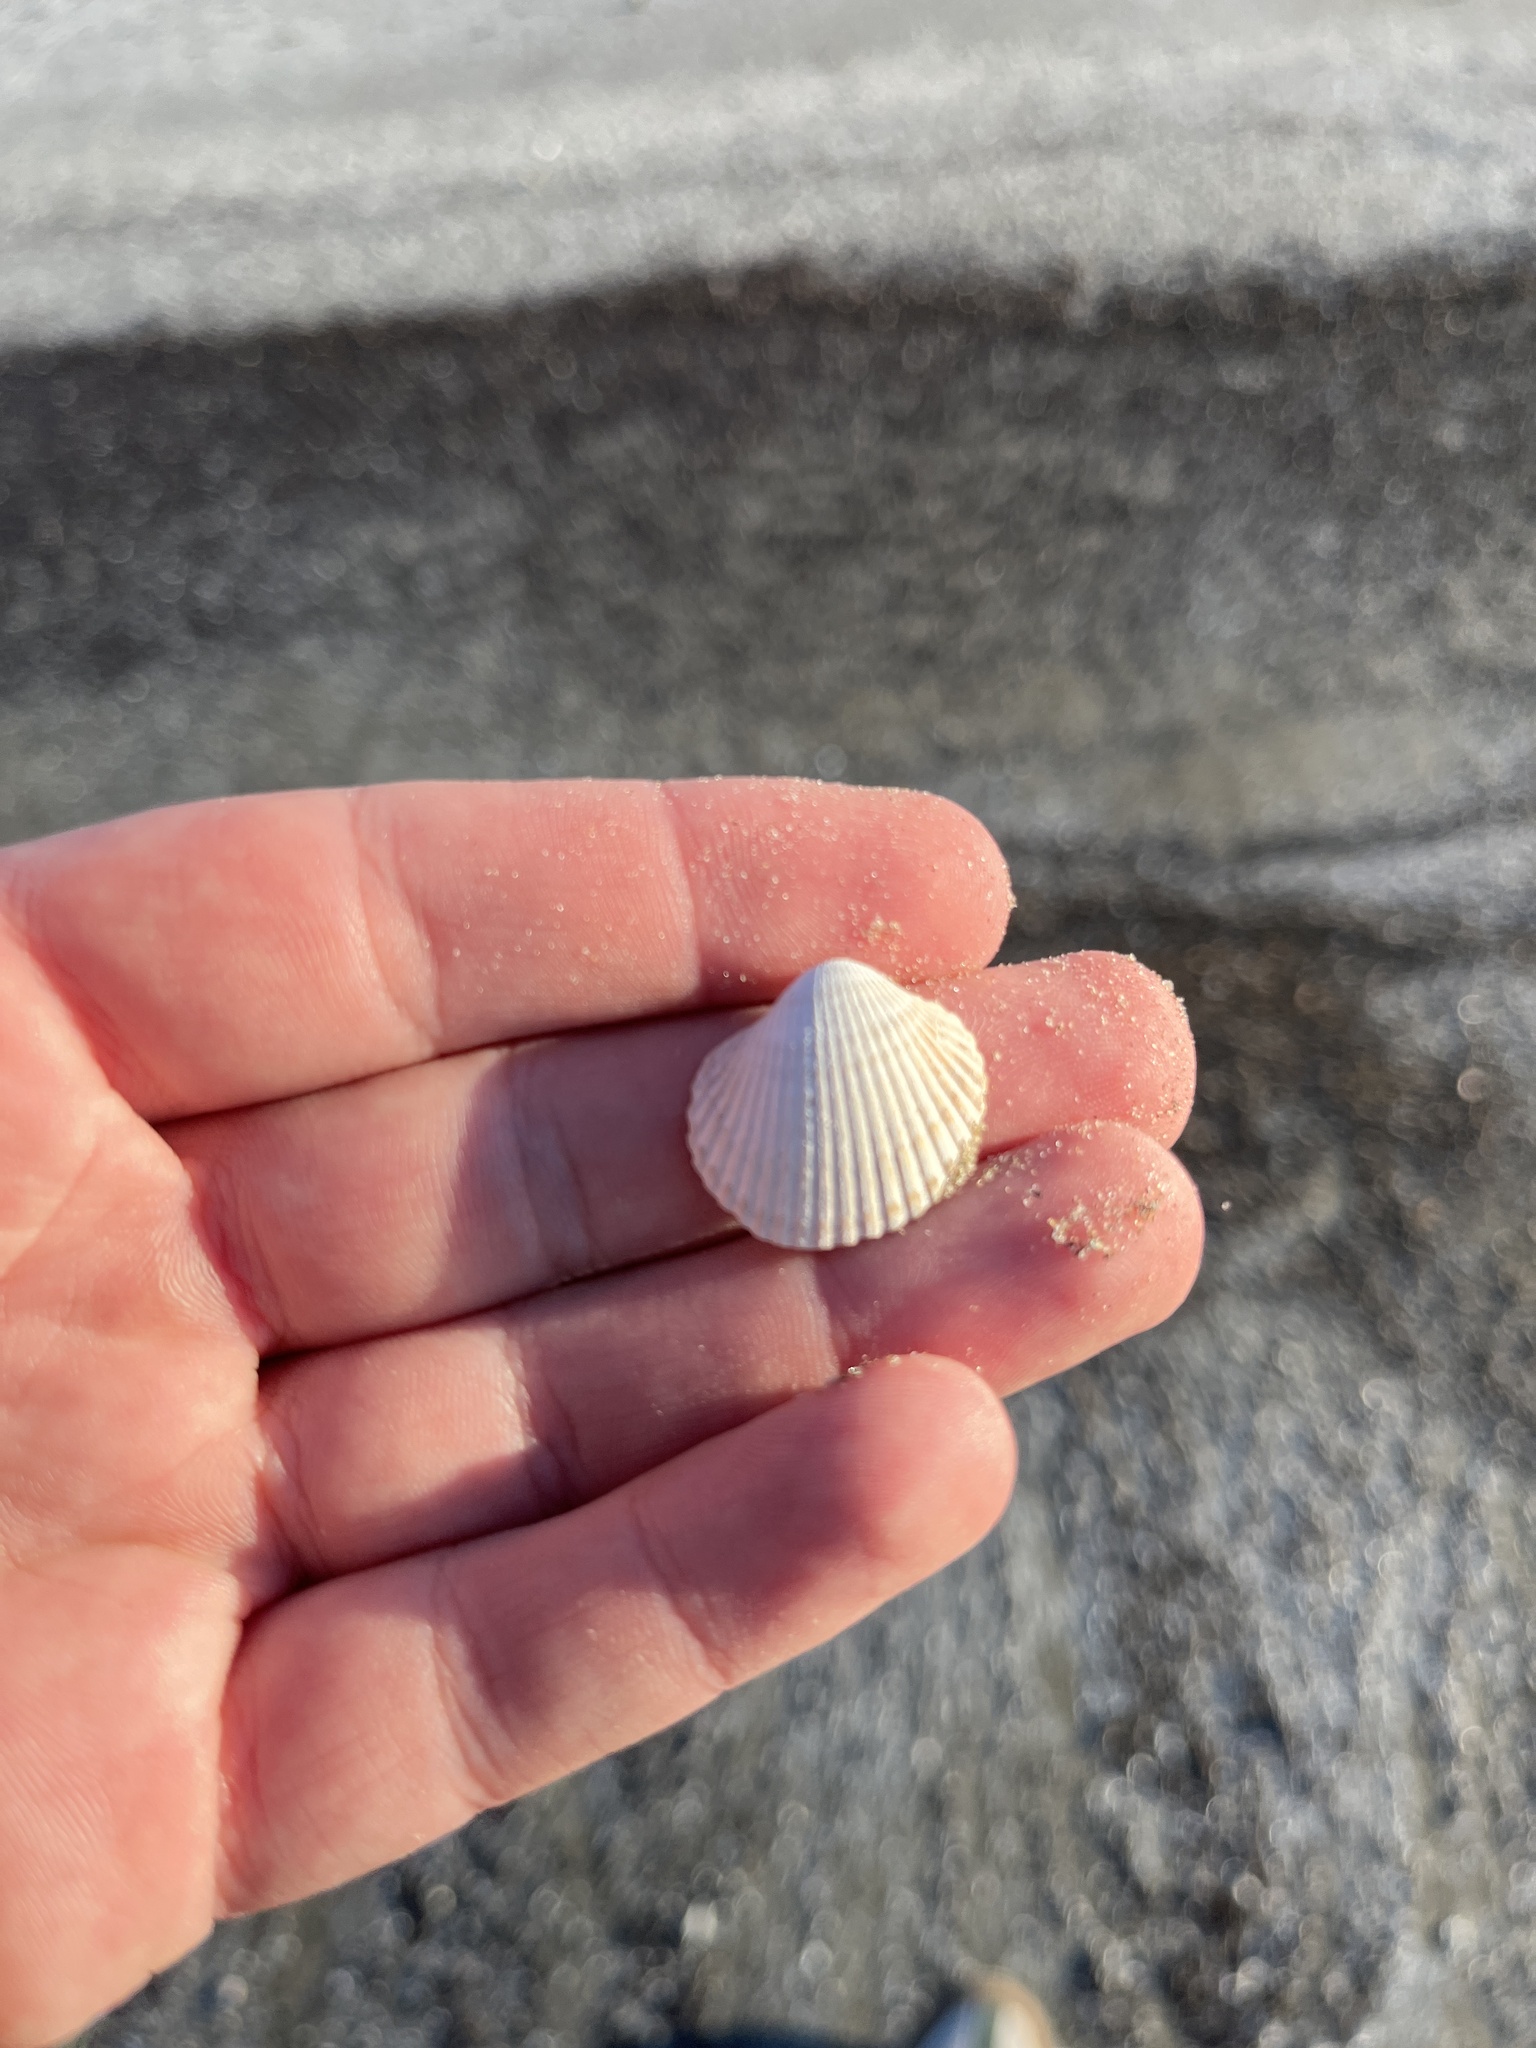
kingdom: Animalia
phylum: Mollusca
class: Bivalvia
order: Arcida
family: Arcidae
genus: Lunarca
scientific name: Lunarca ovalis
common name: Blood ark
